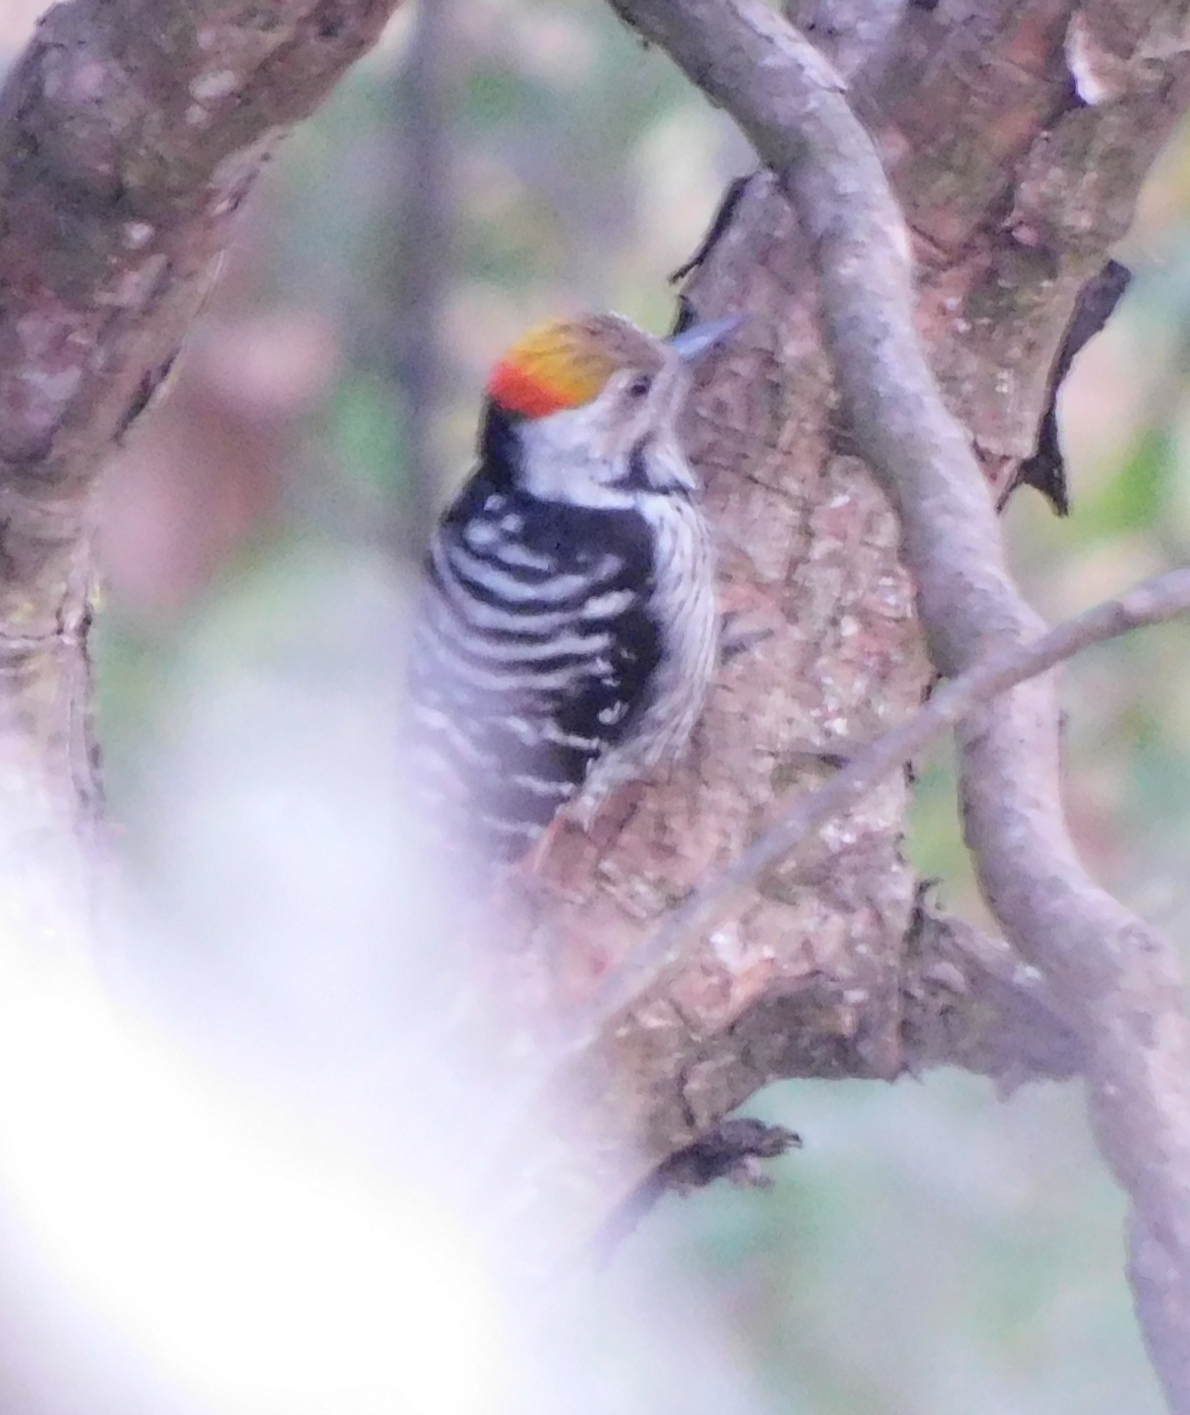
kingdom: Animalia
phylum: Chordata
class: Aves
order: Piciformes
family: Picidae
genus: Dendrocoptes
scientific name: Dendrocoptes auriceps
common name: Brown-fronted woodpecker
